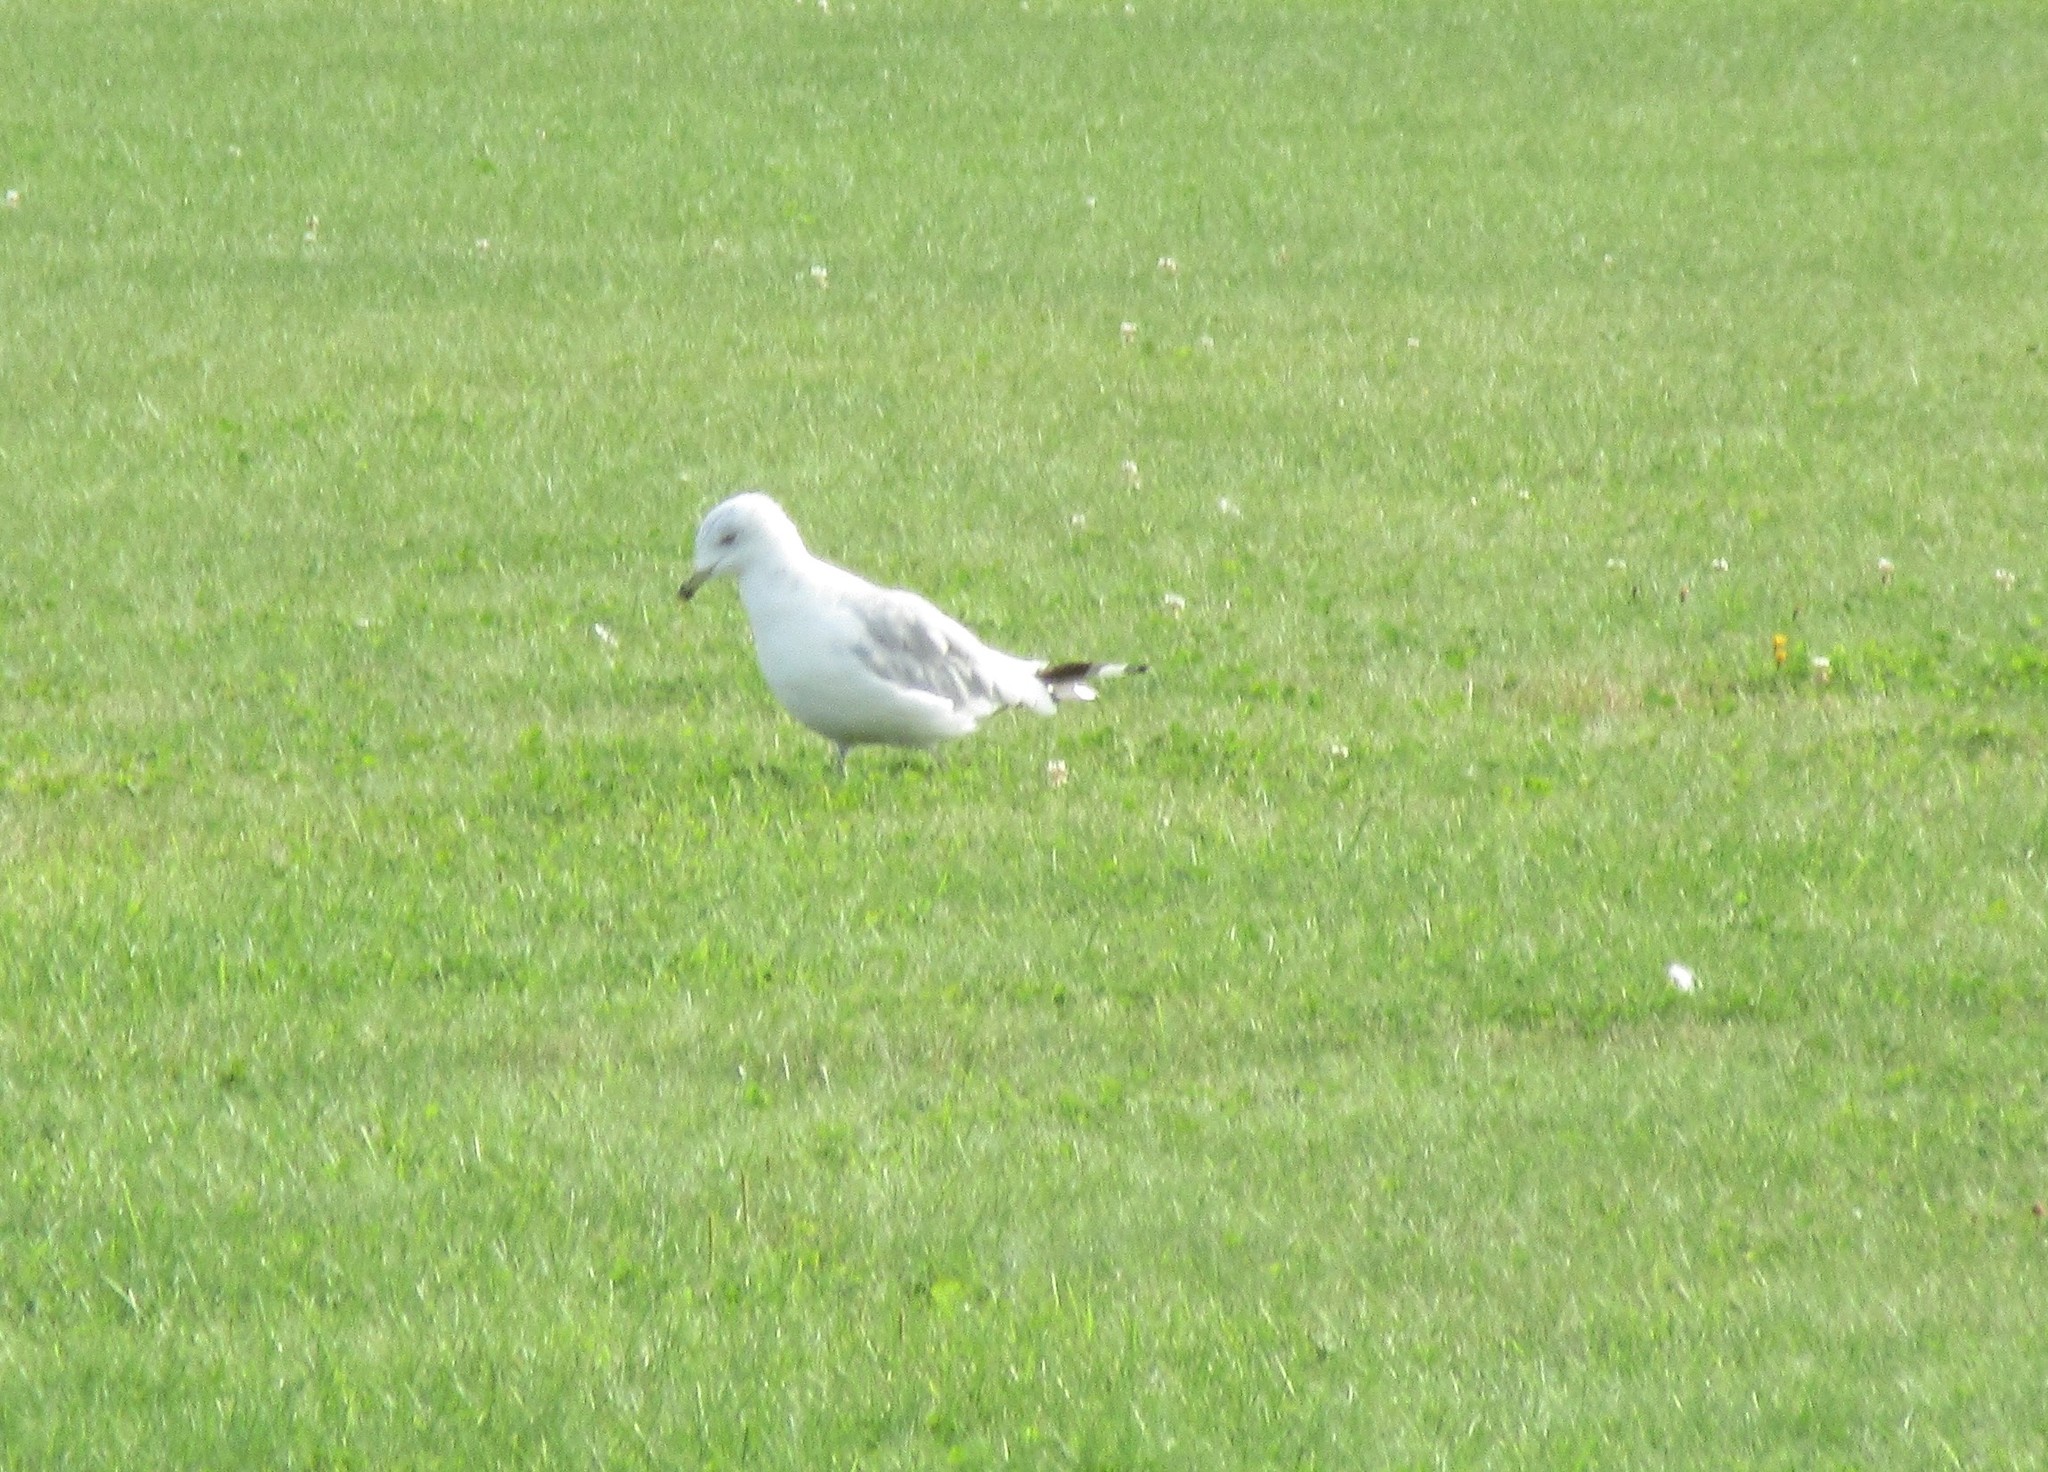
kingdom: Animalia
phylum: Chordata
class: Aves
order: Charadriiformes
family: Laridae
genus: Larus
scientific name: Larus delawarensis
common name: Ring-billed gull
